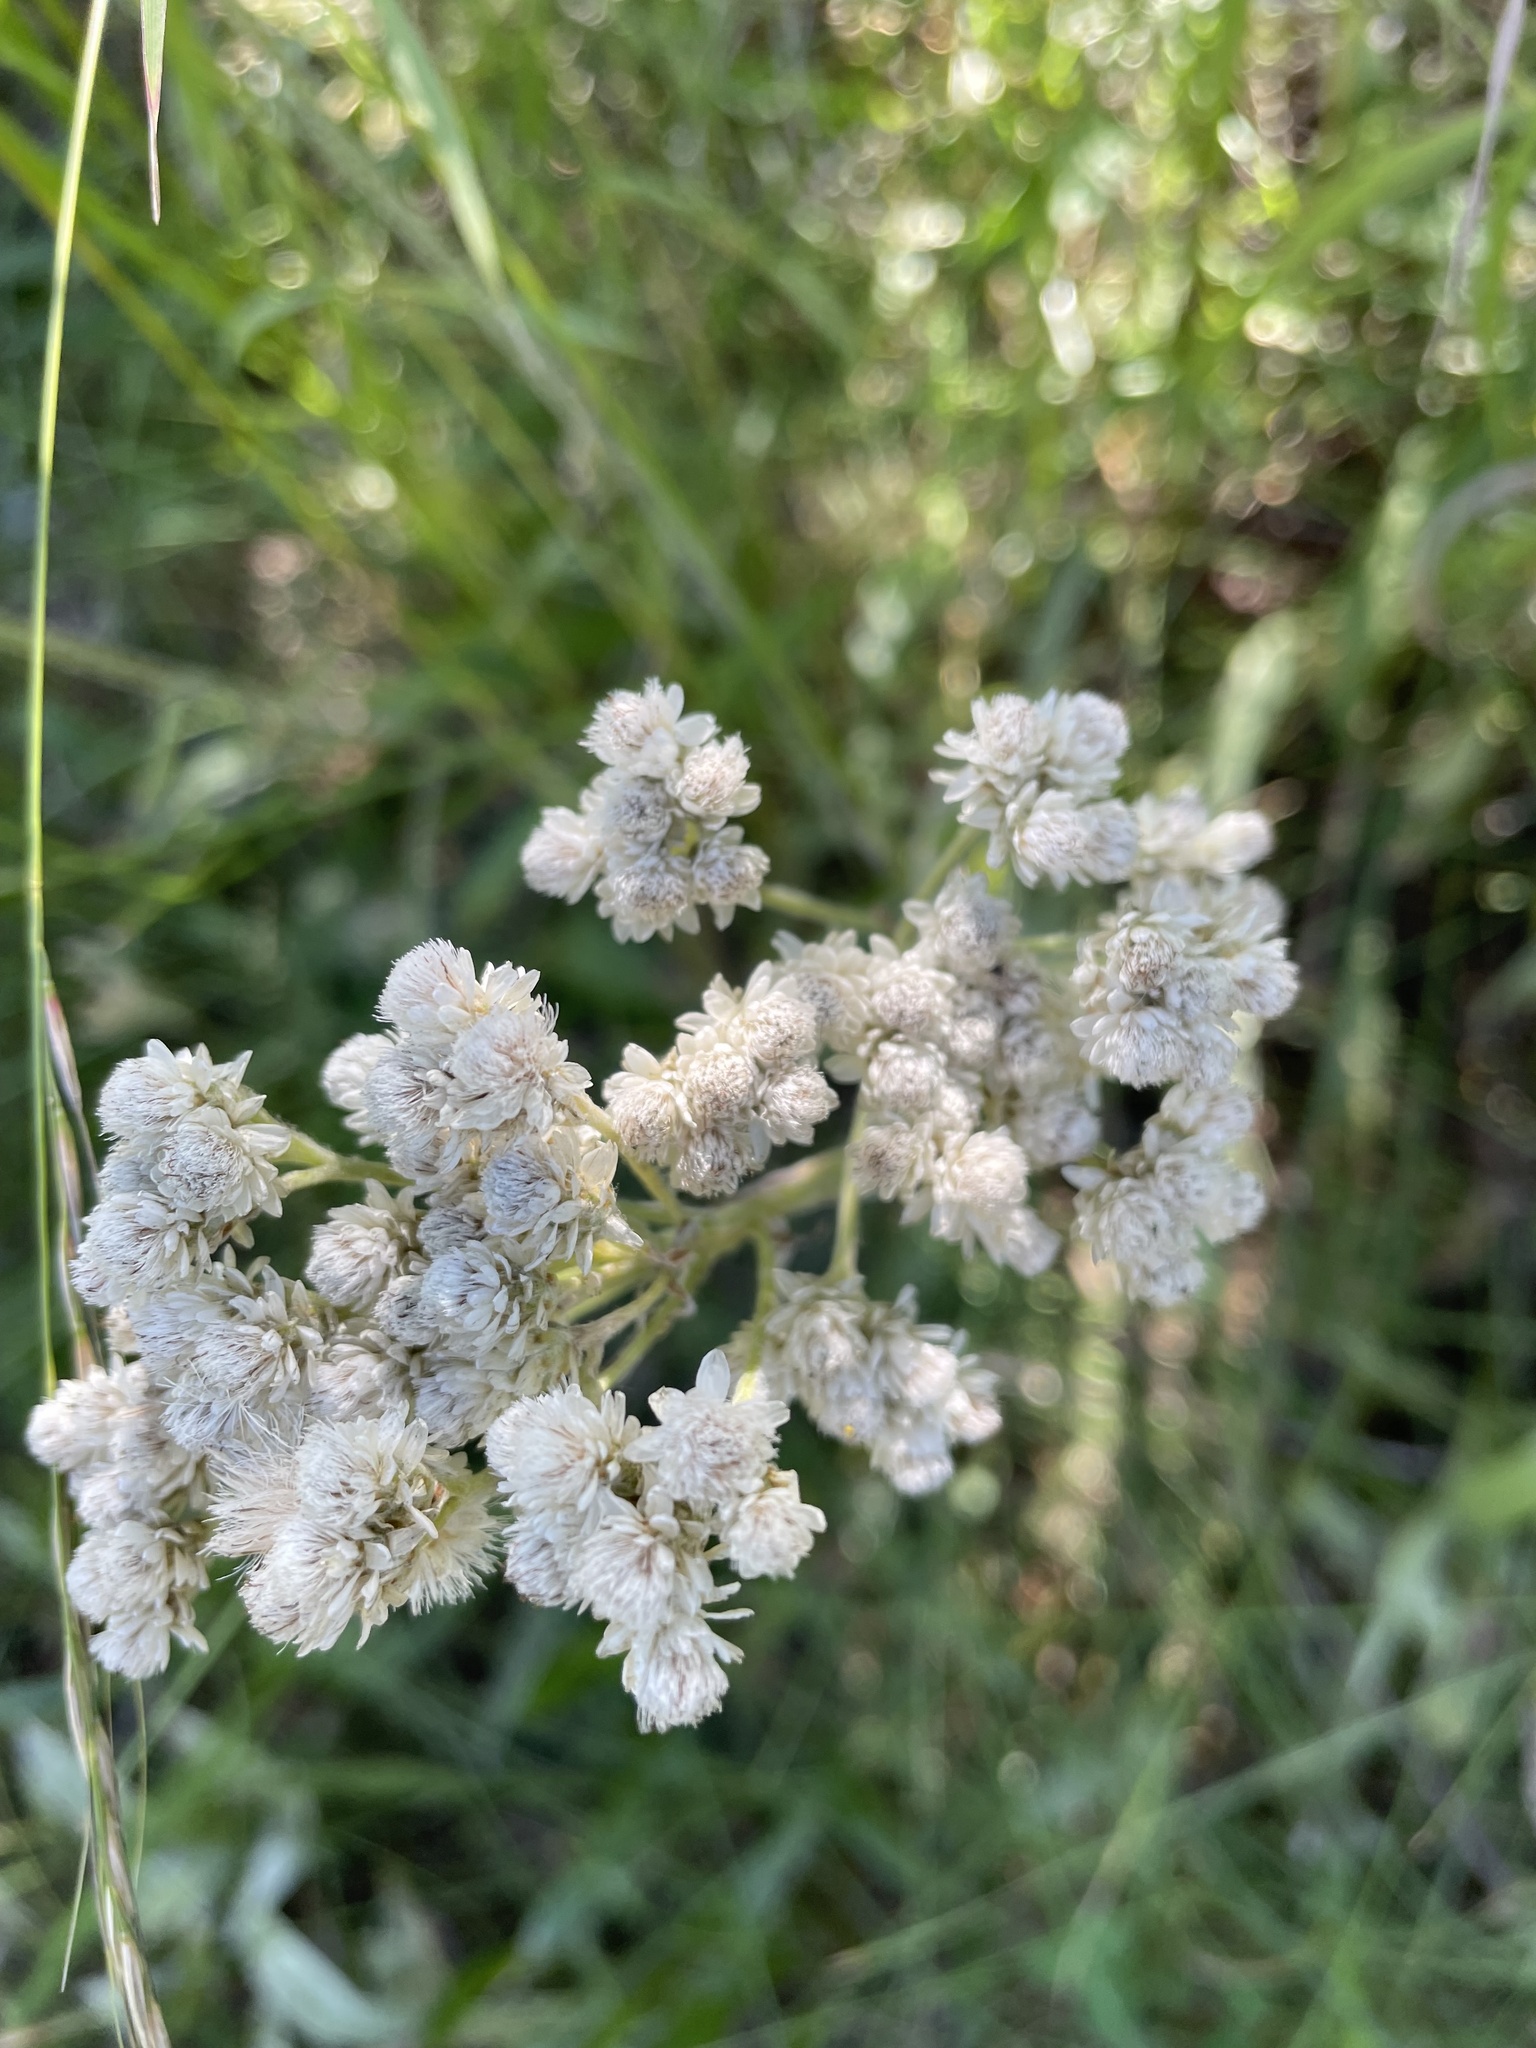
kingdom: Plantae
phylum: Tracheophyta
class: Magnoliopsida
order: Asterales
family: Asteraceae
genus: Anaphalis
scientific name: Anaphalis margaritacea
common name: Pearly everlasting
